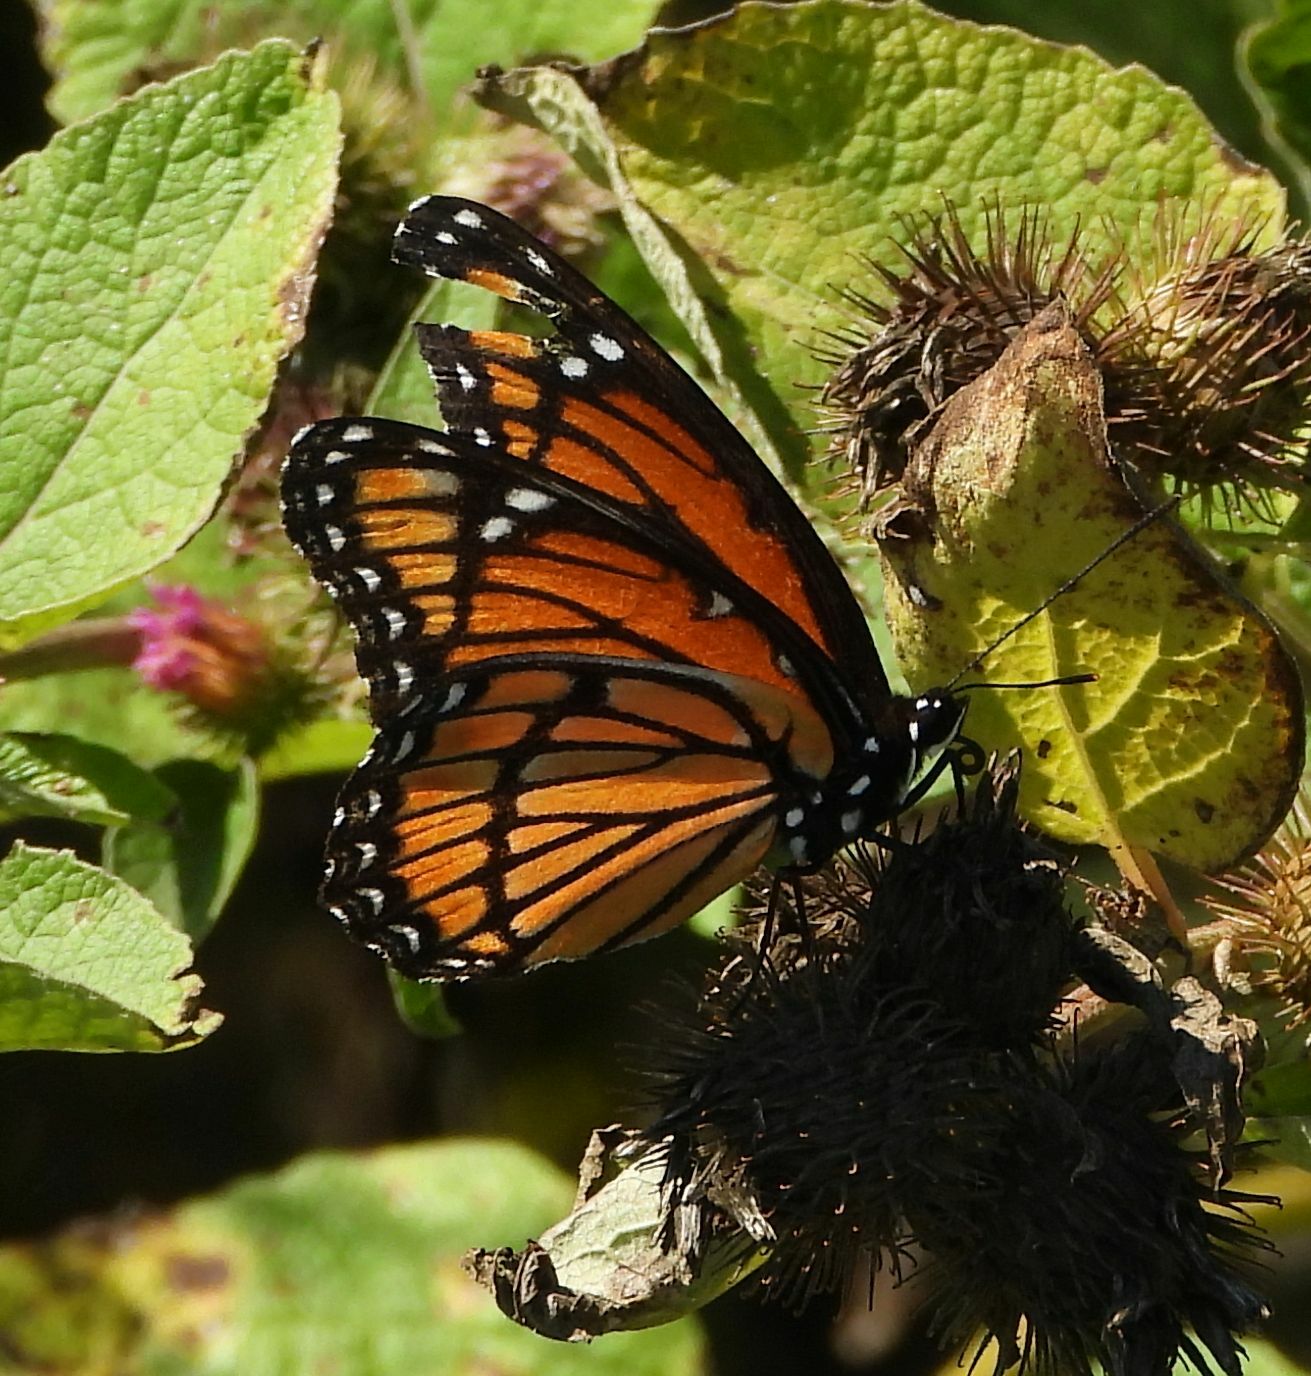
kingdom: Animalia
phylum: Arthropoda
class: Insecta
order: Lepidoptera
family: Nymphalidae
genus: Limenitis
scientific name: Limenitis archippus
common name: Viceroy
